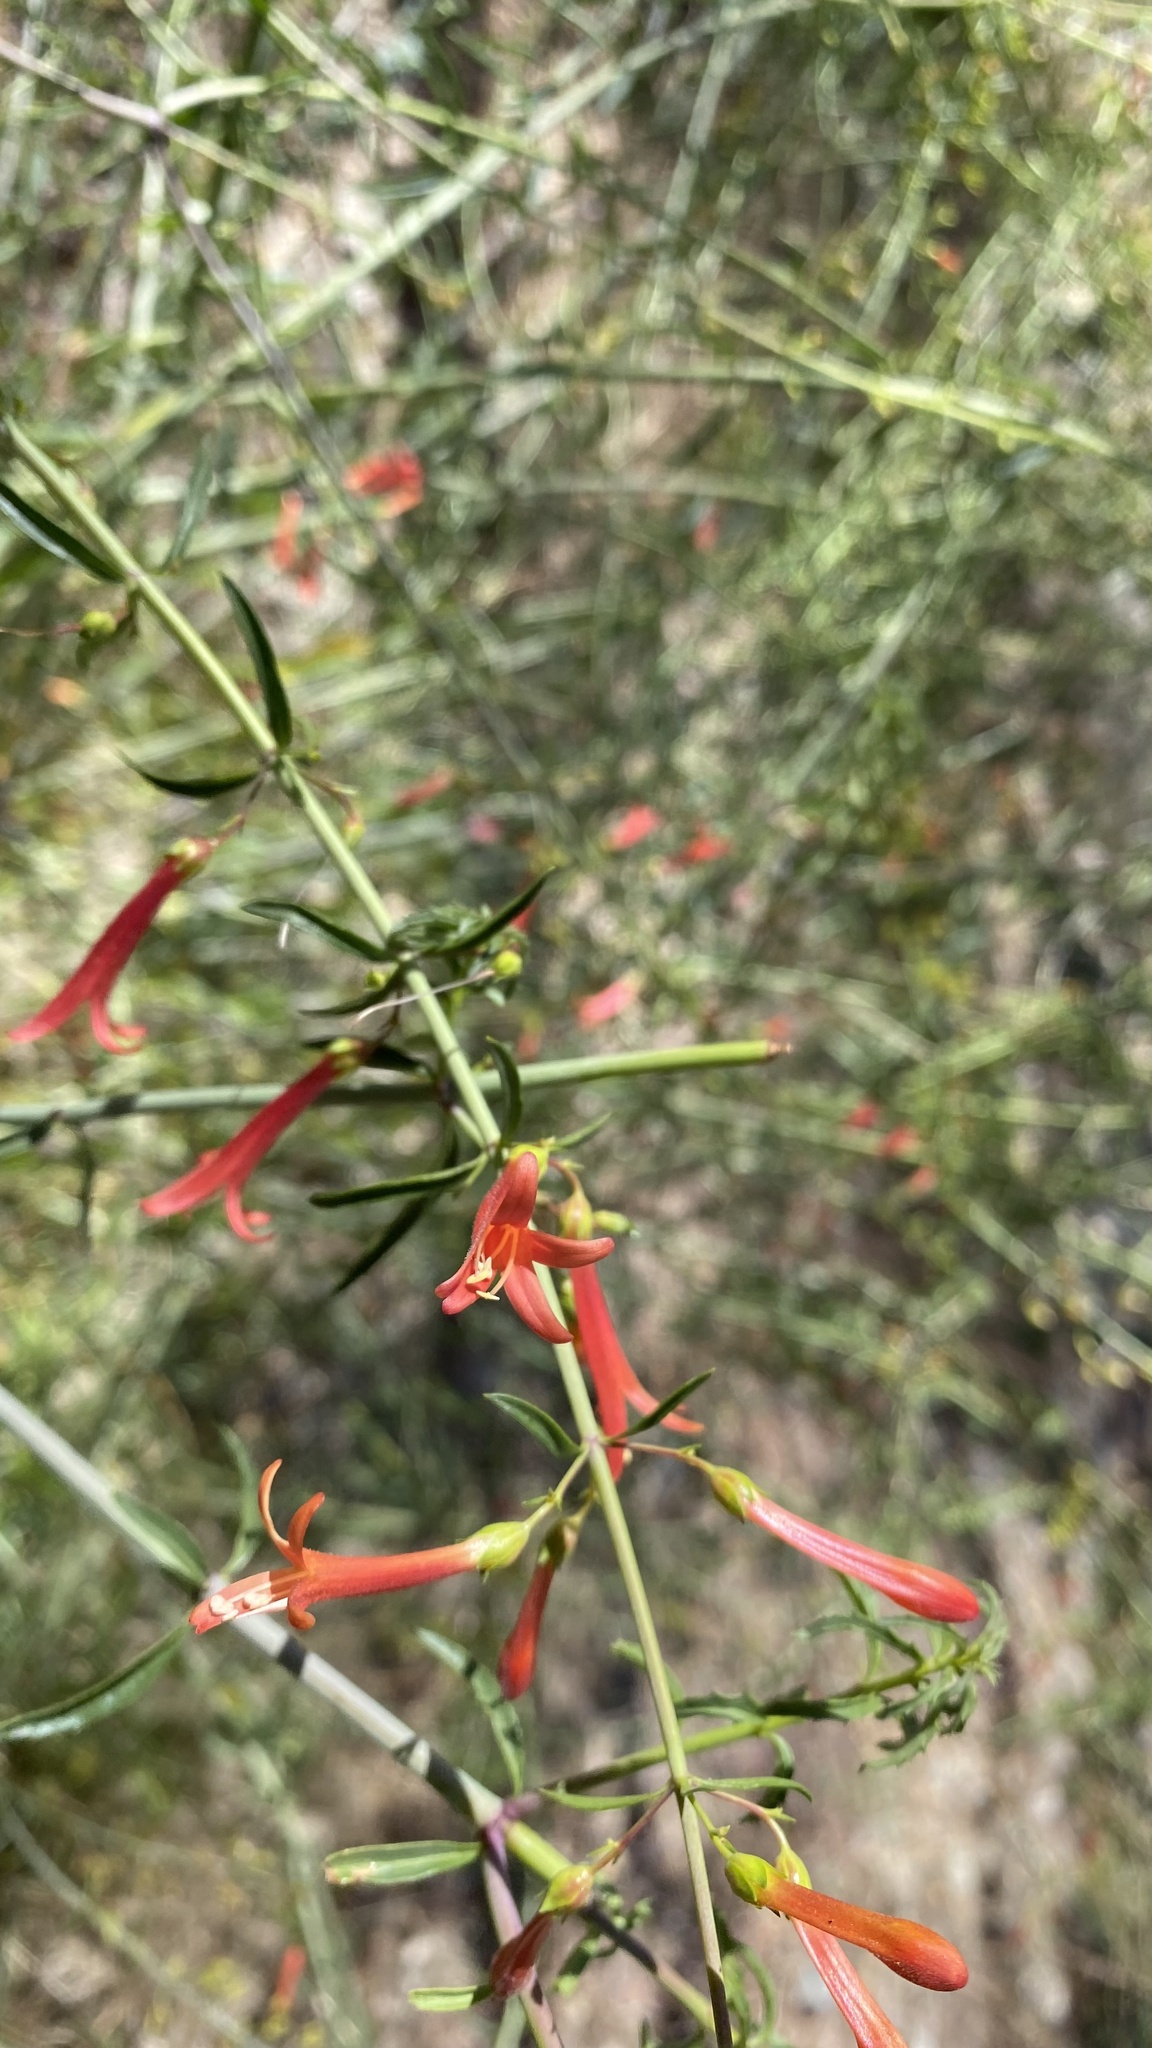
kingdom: Plantae
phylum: Tracheophyta
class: Magnoliopsida
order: Lamiales
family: Plantaginaceae
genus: Keckiella
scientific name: Keckiella ternata
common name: Scarlet keckiella
